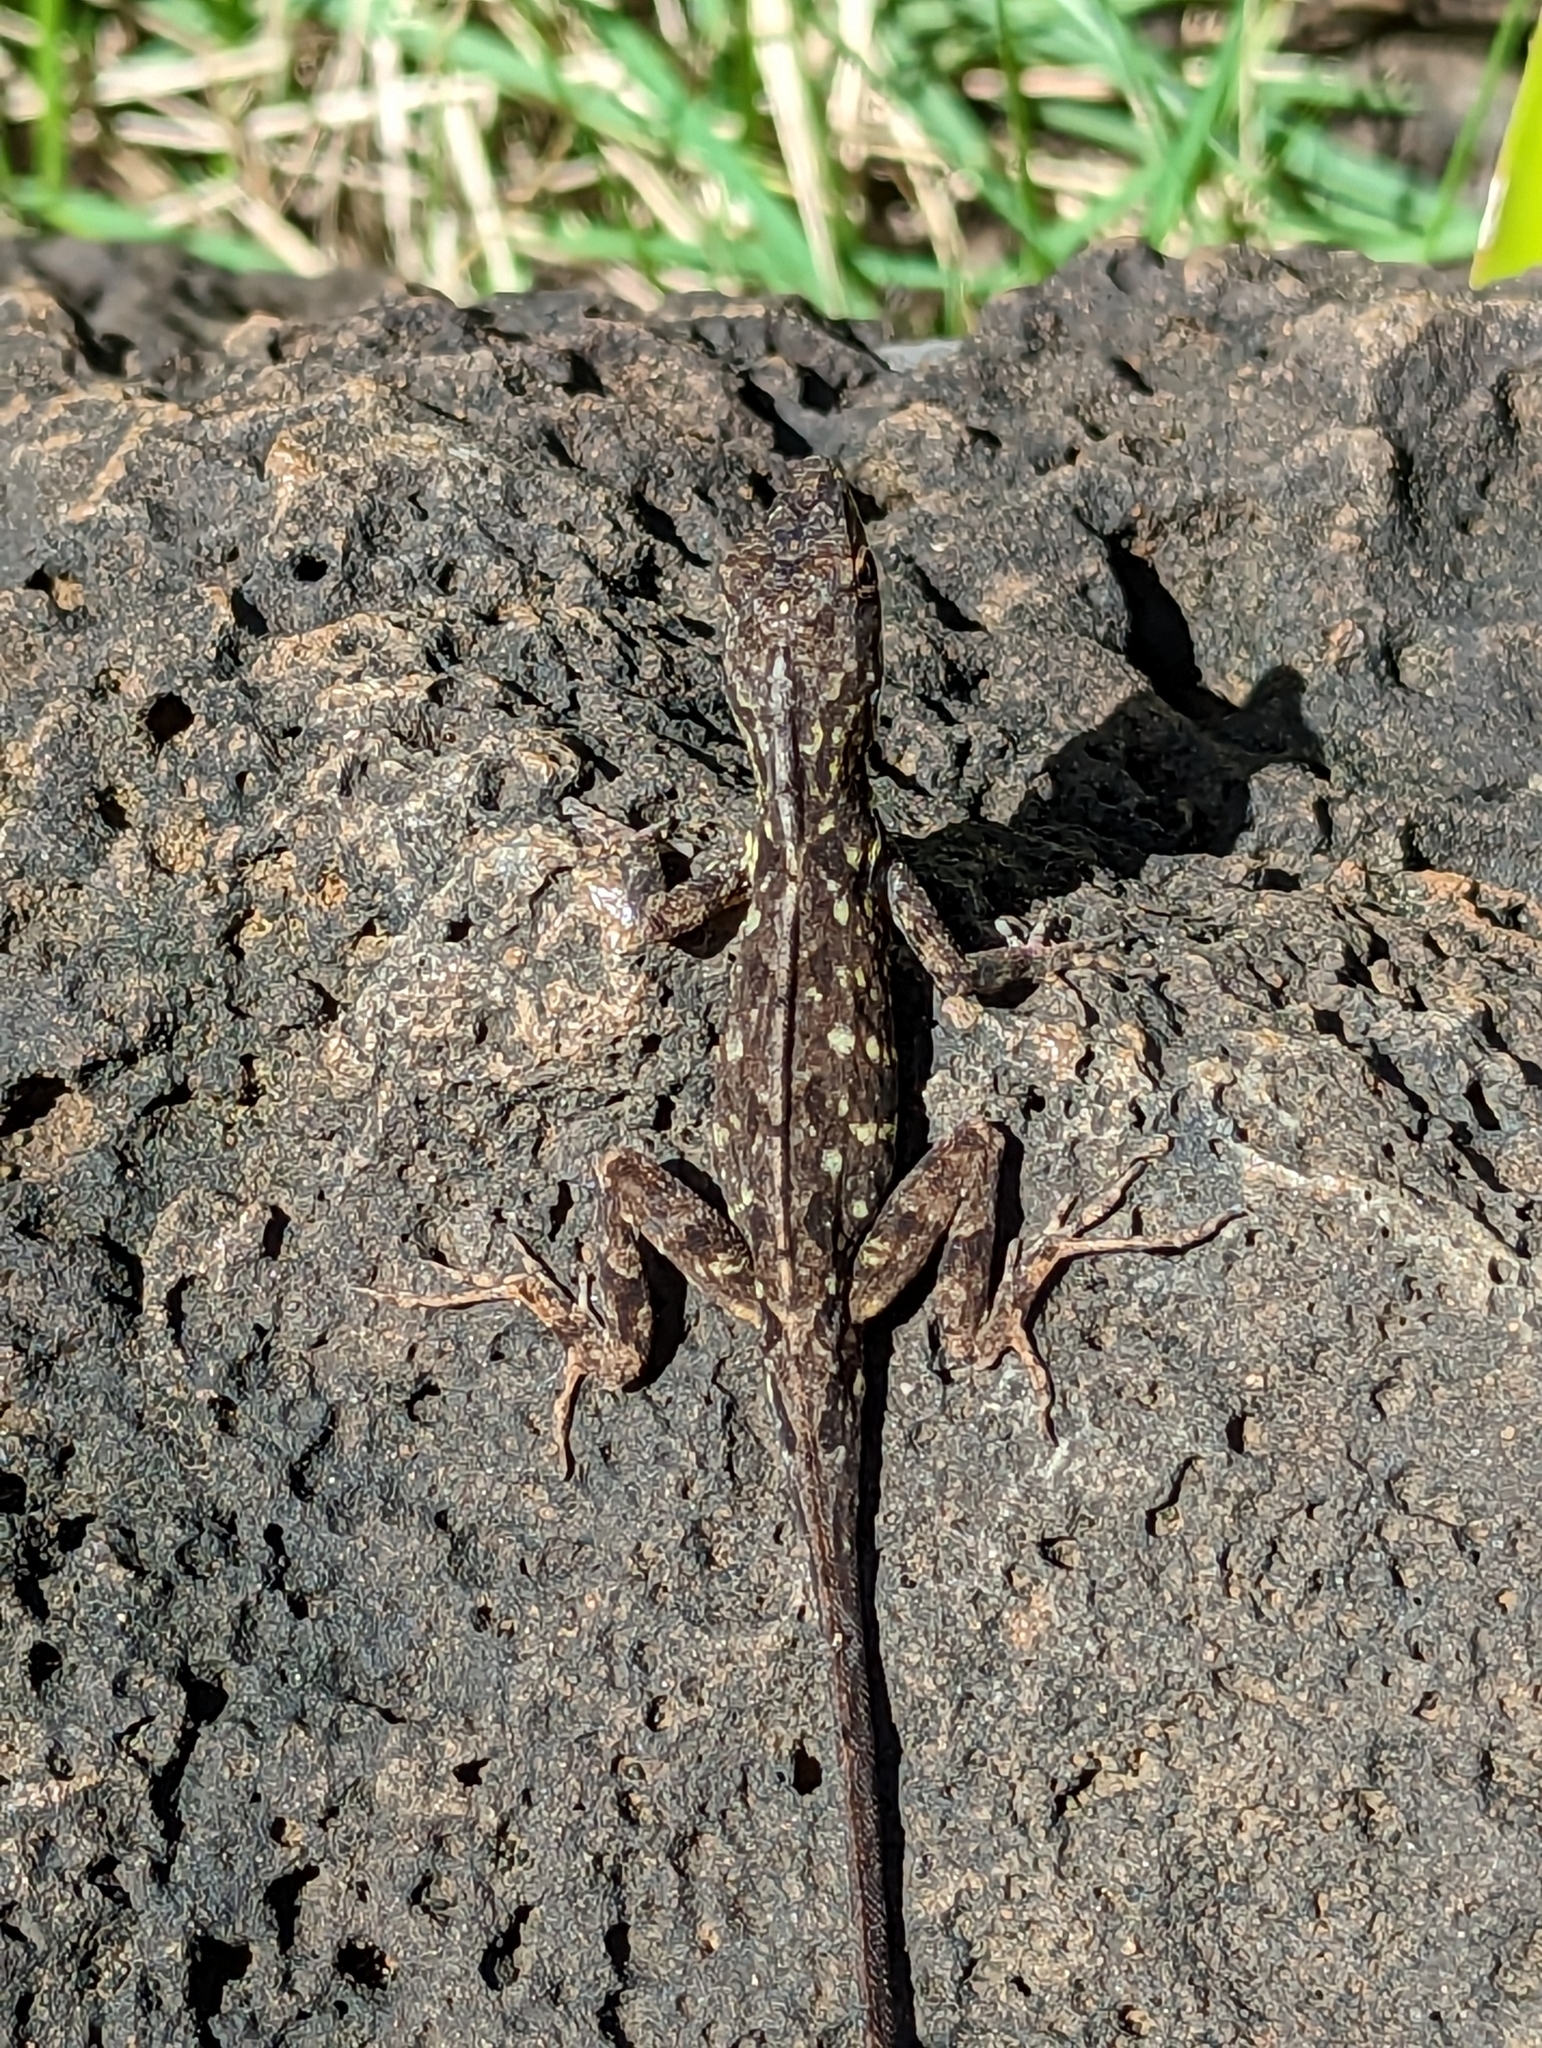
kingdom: Animalia
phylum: Chordata
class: Squamata
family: Dactyloidae
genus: Anolis
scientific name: Anolis sagrei
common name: Brown anole
